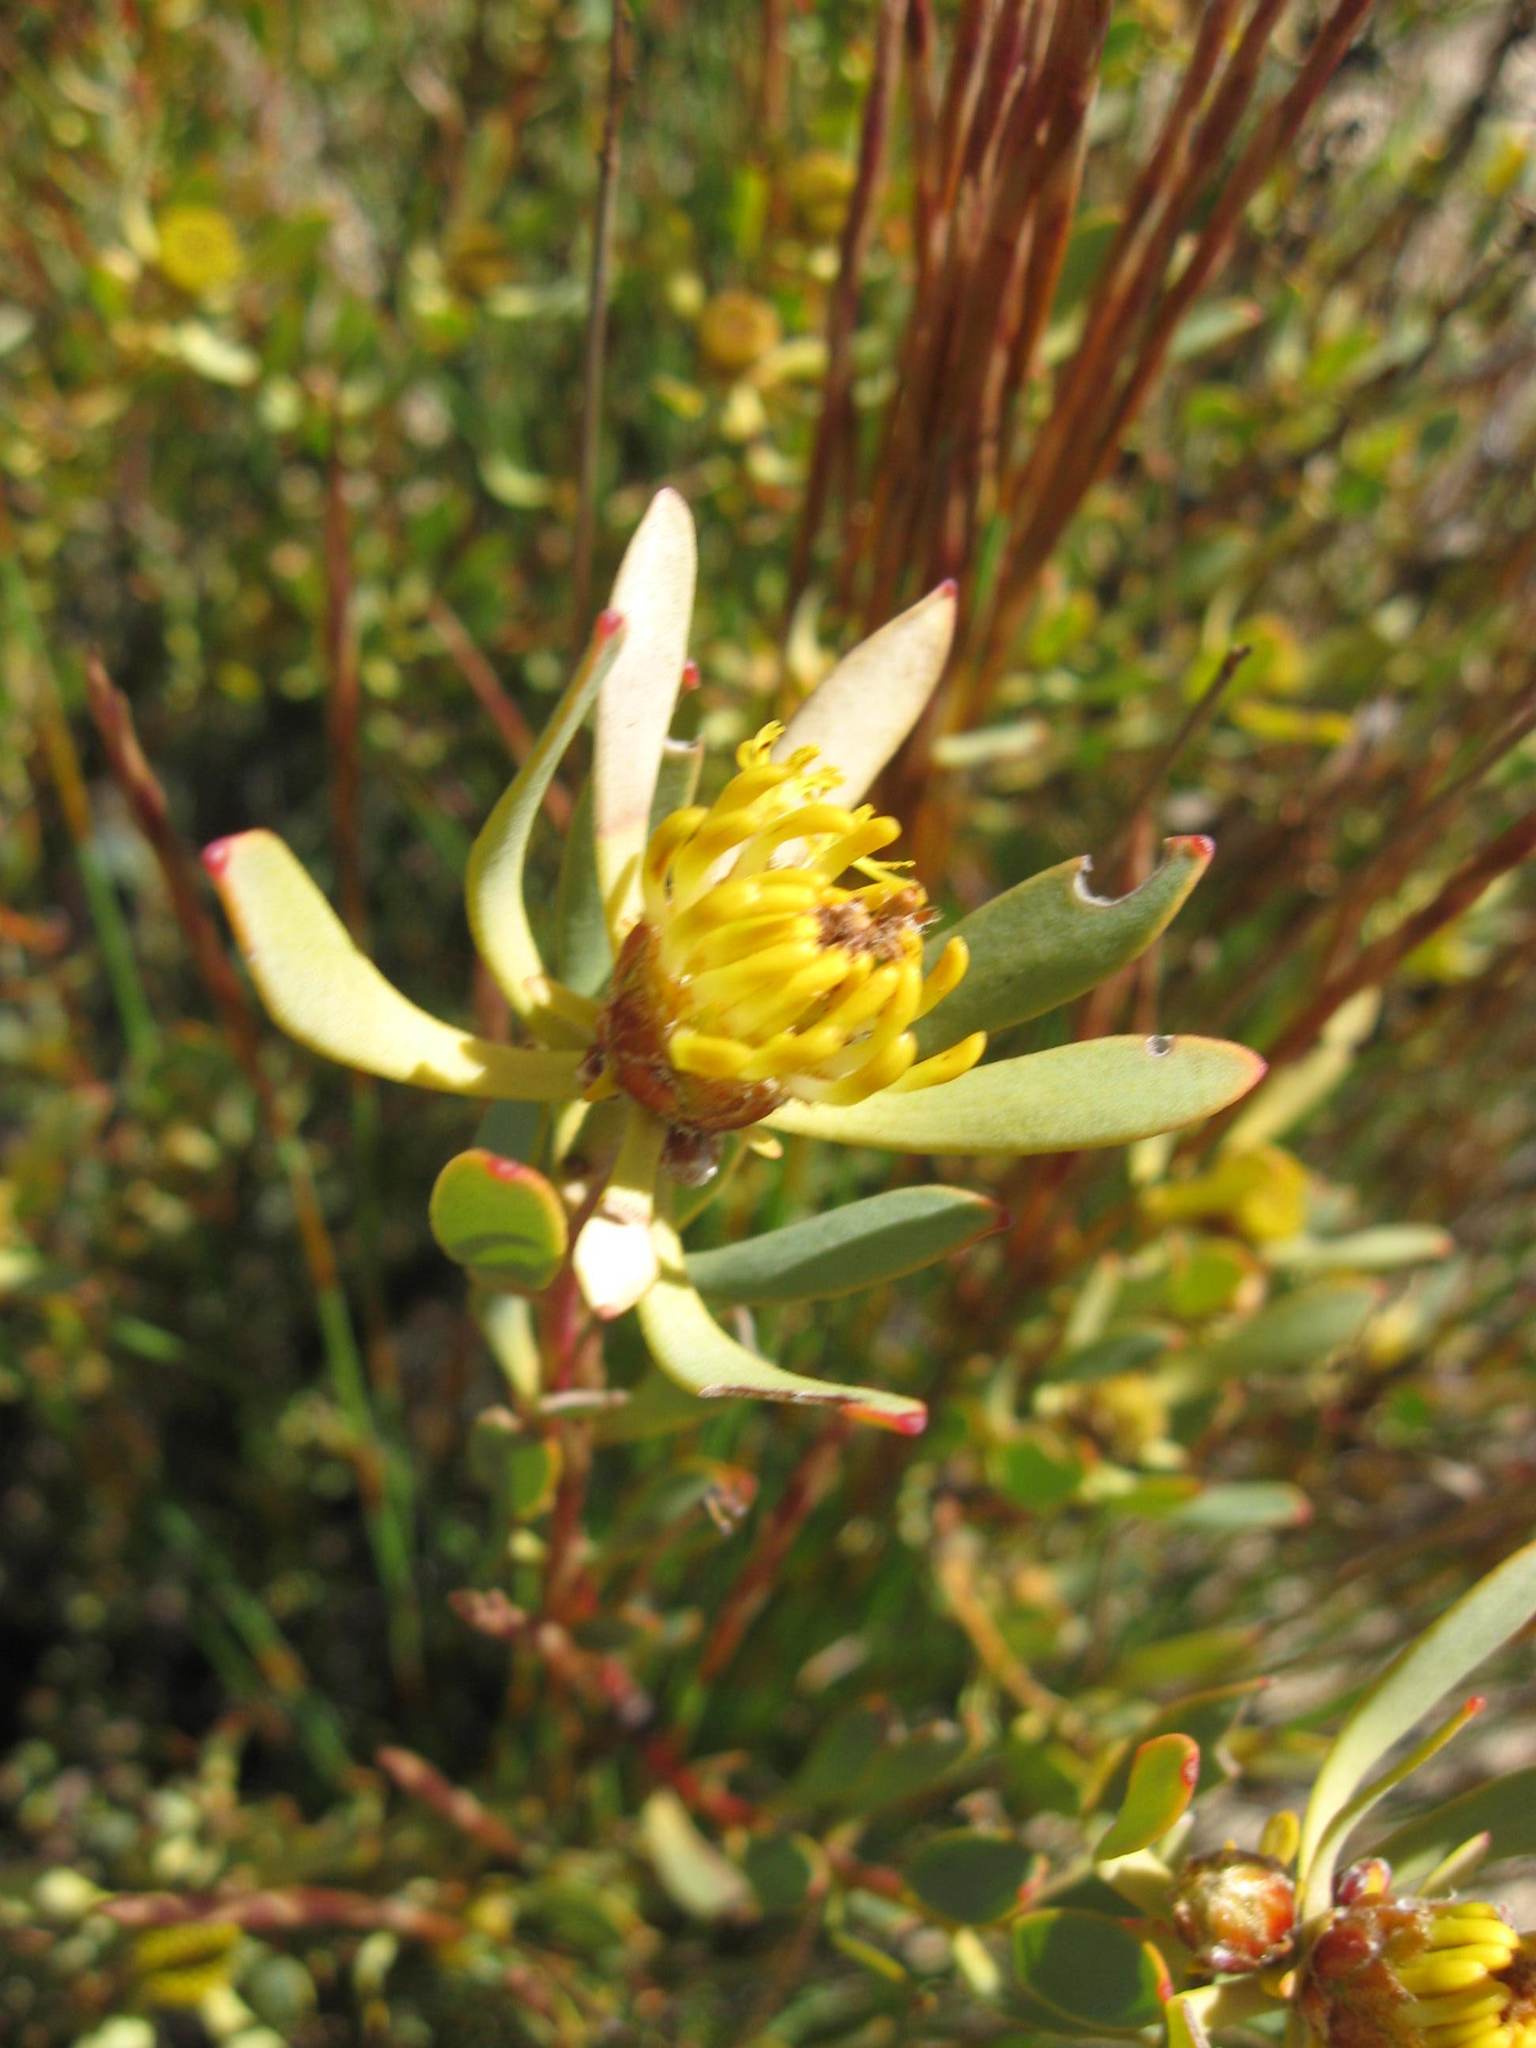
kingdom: Plantae
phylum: Tracheophyta
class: Magnoliopsida
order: Proteales
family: Proteaceae
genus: Leucadendron
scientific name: Leucadendron glaberrimum
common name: Common oily conebush
